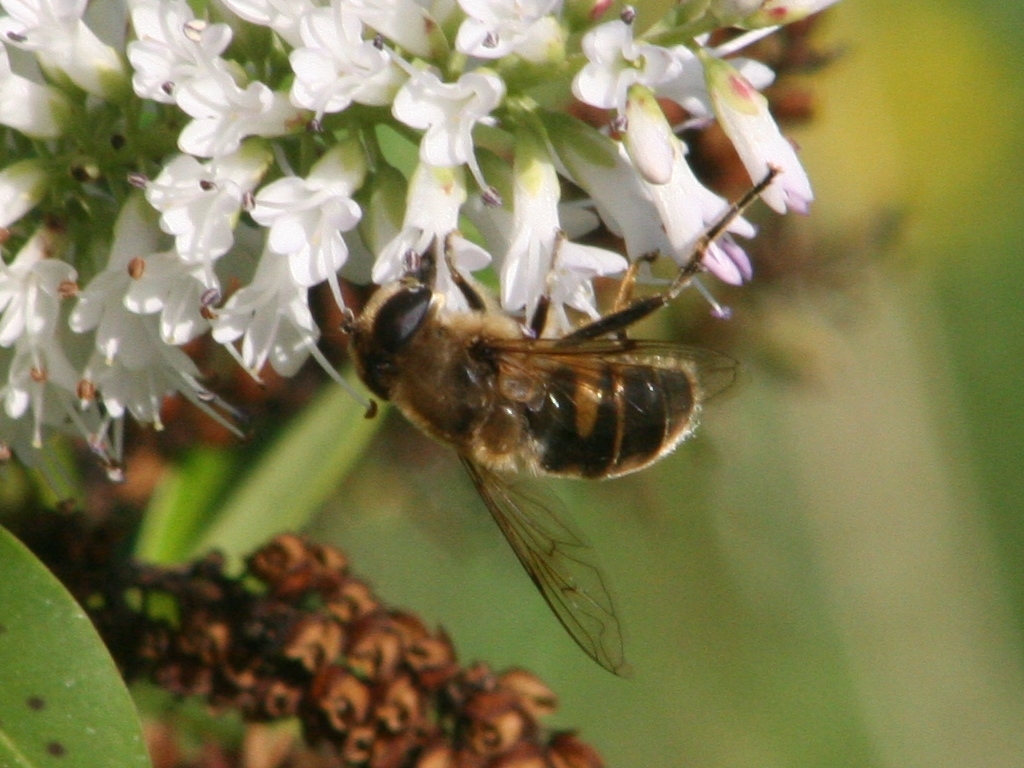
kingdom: Animalia
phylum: Arthropoda
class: Insecta
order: Diptera
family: Syrphidae
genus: Eristalis
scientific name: Eristalis tenax
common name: Drone fly
